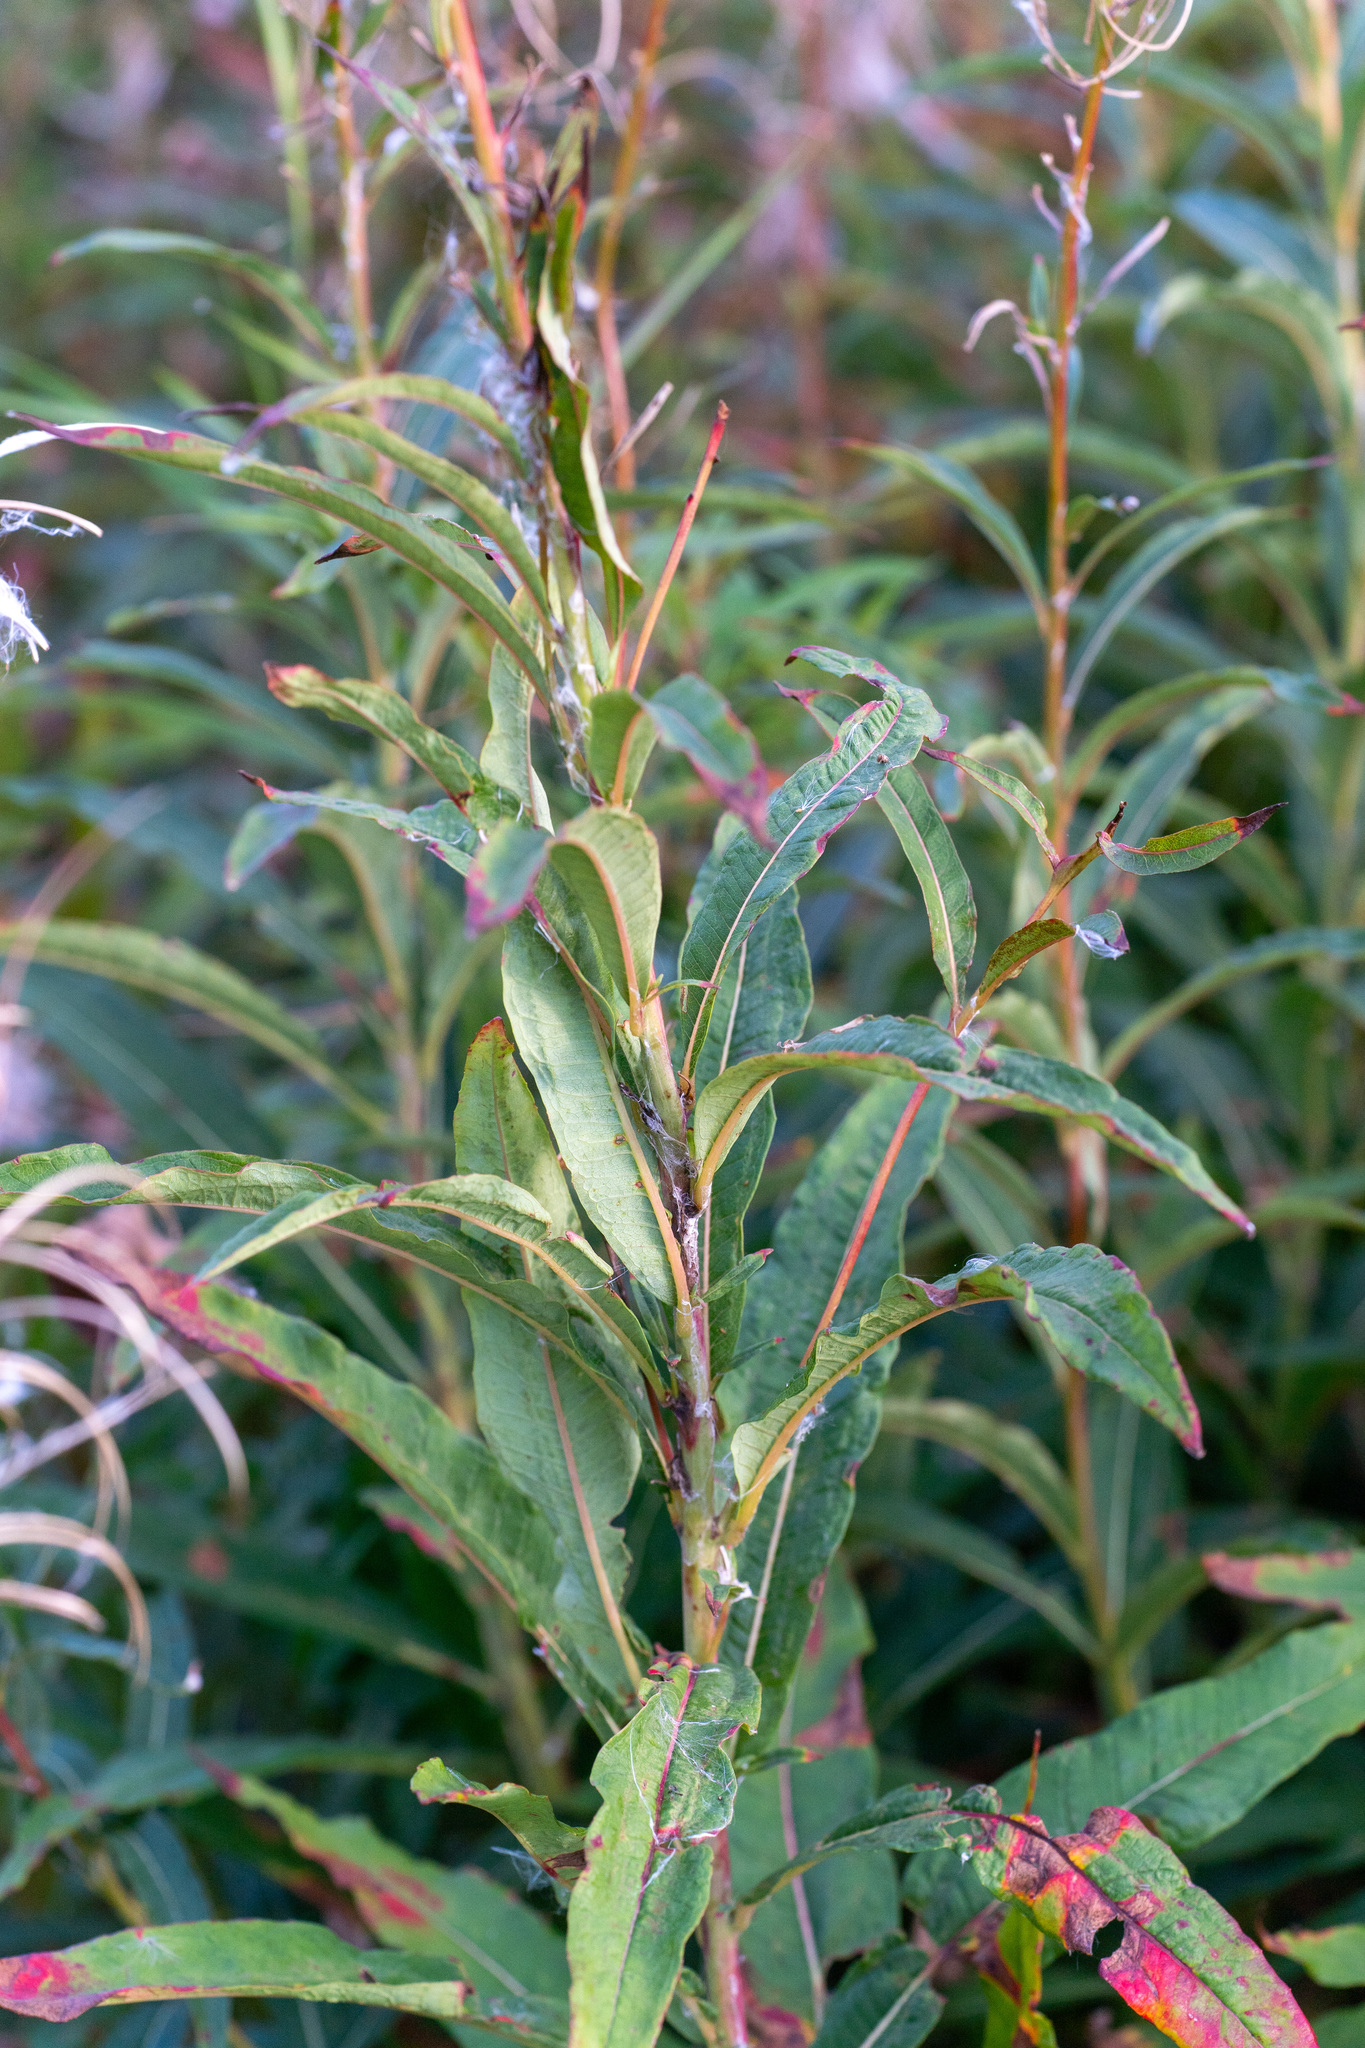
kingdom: Plantae
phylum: Tracheophyta
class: Magnoliopsida
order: Myrtales
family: Onagraceae
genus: Chamaenerion
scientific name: Chamaenerion angustifolium
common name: Fireweed
